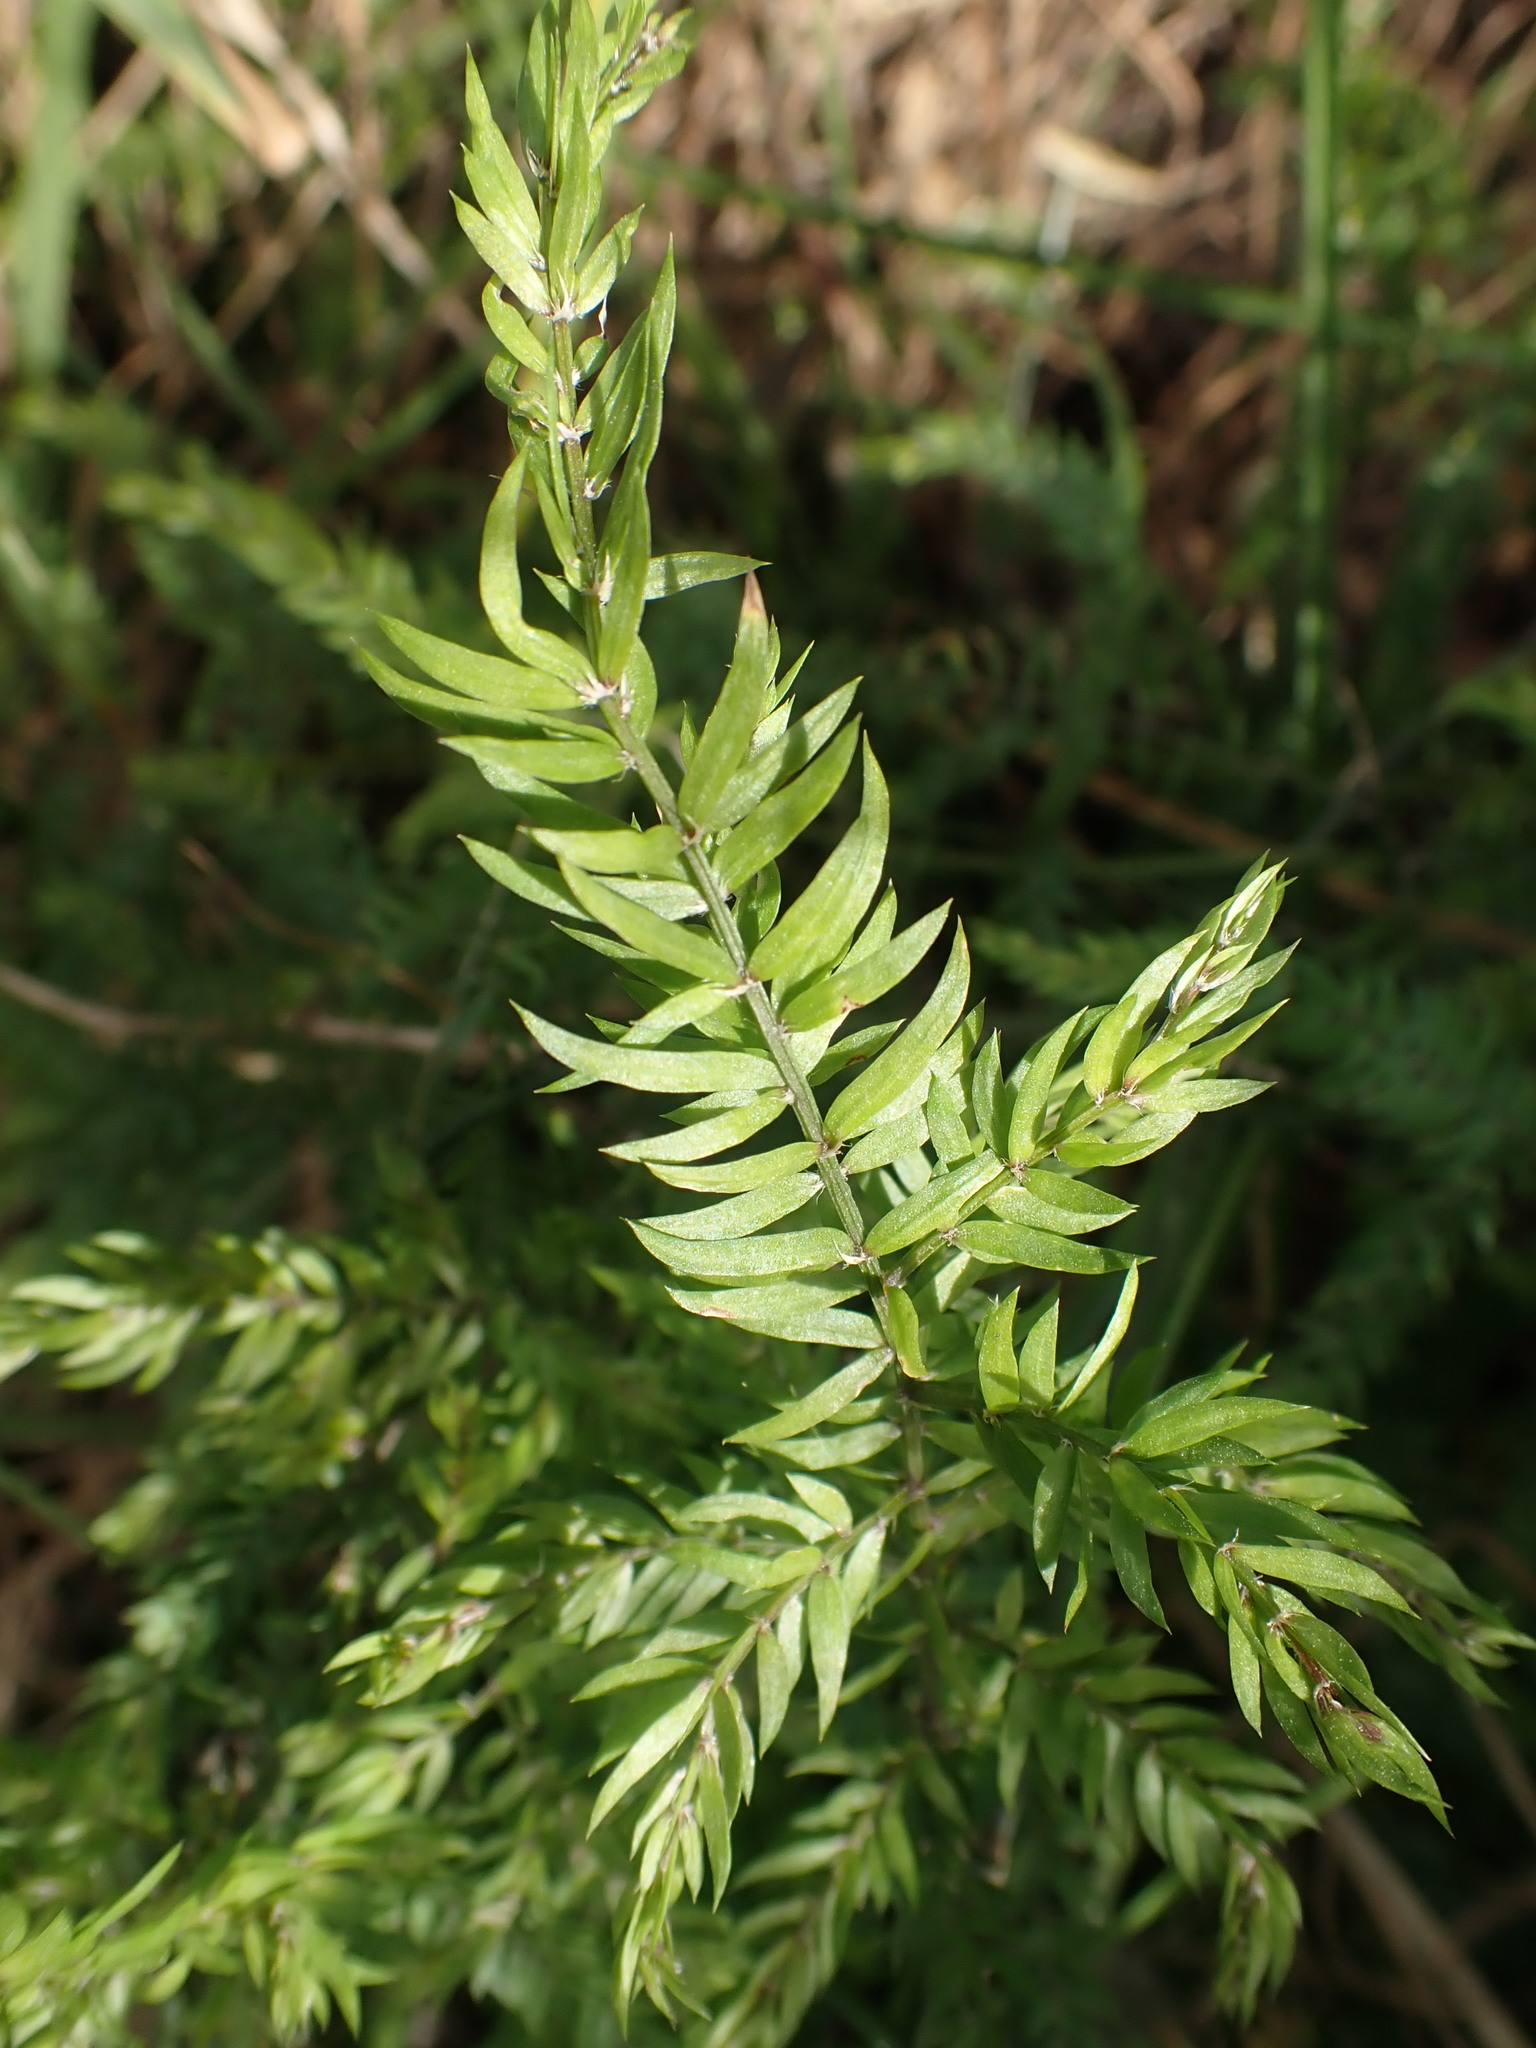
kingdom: Plantae
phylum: Tracheophyta
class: Liliopsida
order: Asparagales
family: Asparagaceae
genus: Asparagus
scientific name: Asparagus scandens
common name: Asparagus-fern
